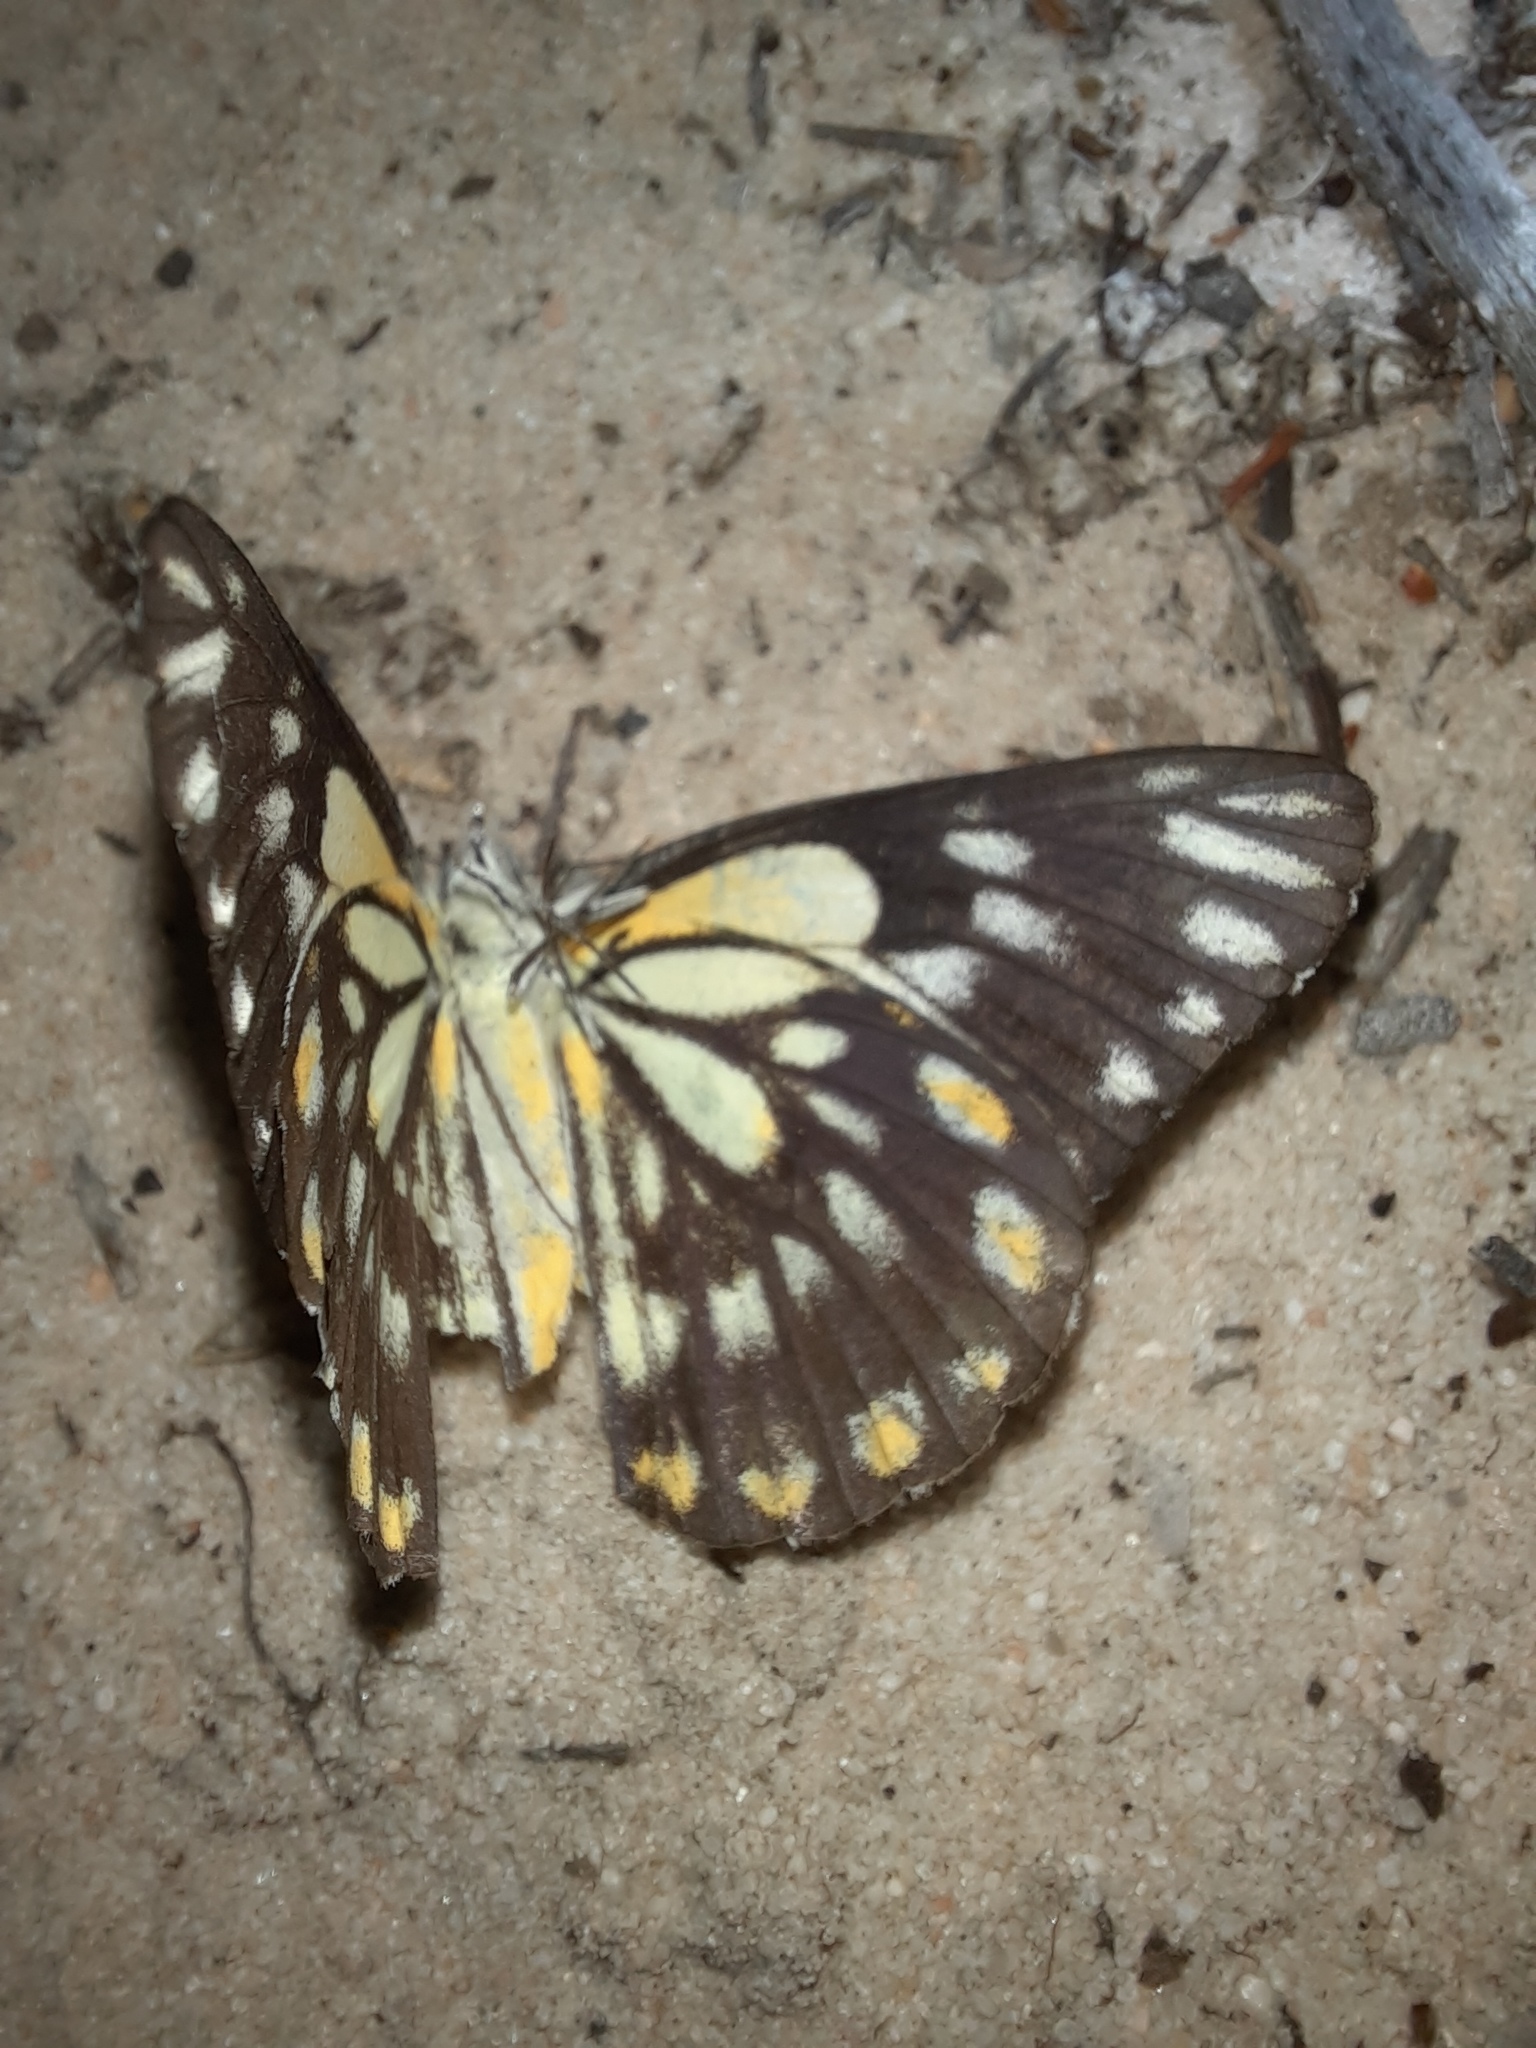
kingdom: Animalia
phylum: Arthropoda
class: Insecta
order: Lepidoptera
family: Pieridae
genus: Belenois
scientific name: Belenois java
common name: Caper white
